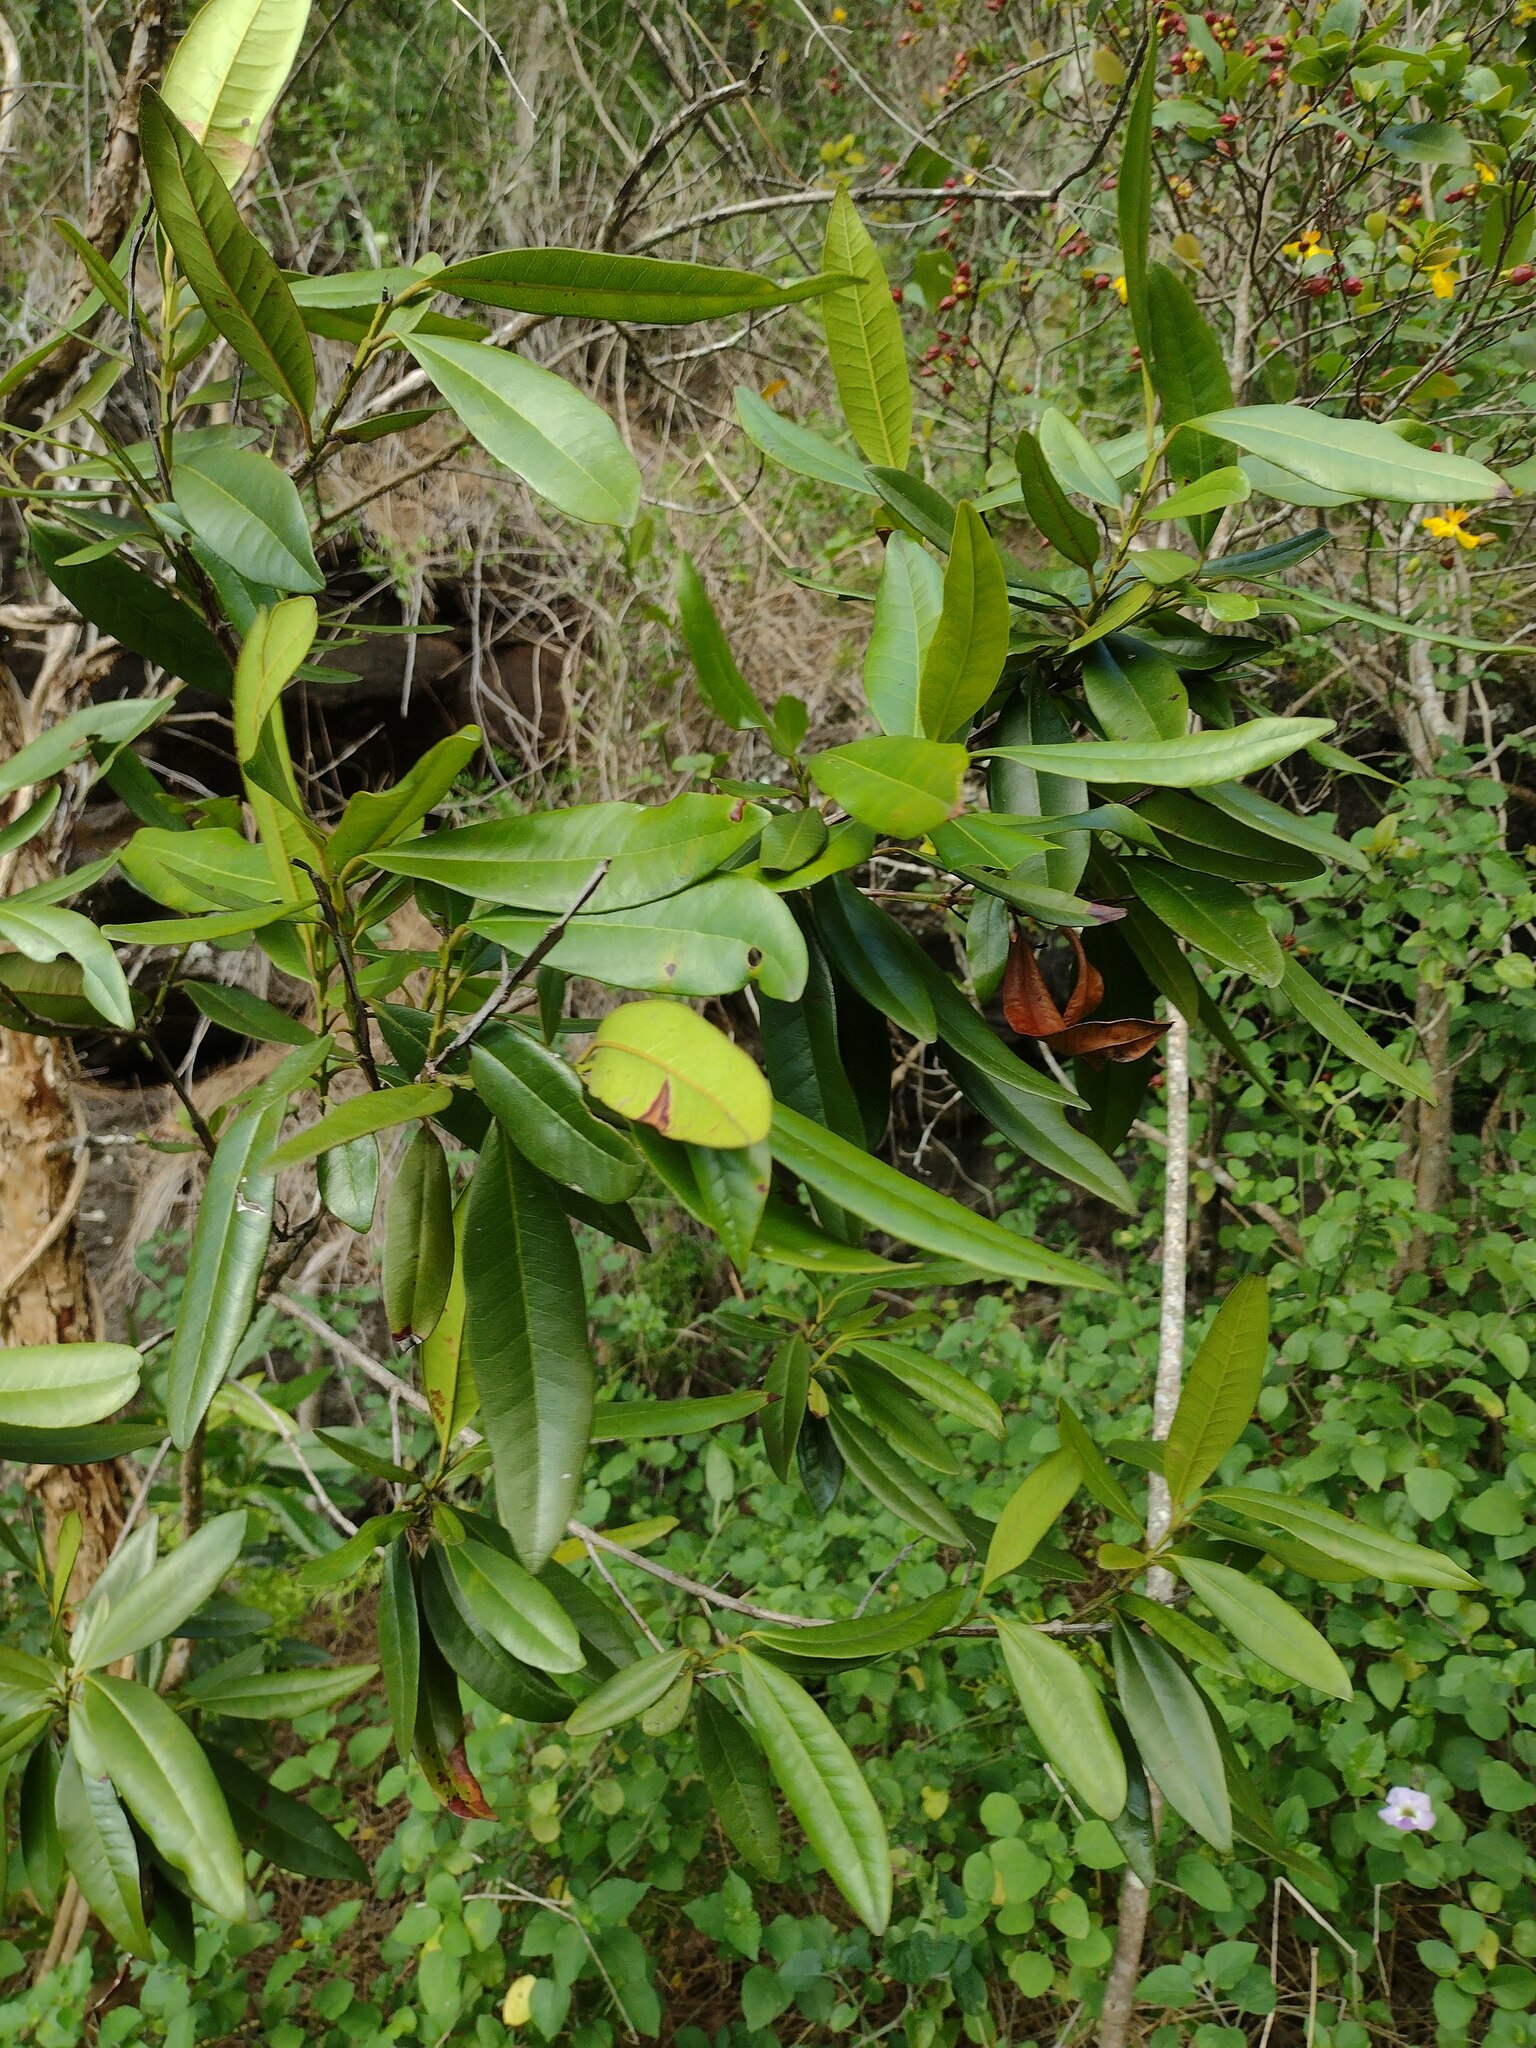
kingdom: Plantae
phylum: Tracheophyta
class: Magnoliopsida
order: Myrtales
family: Myrtaceae
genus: Pimenta
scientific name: Pimenta dioica
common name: Allspice
